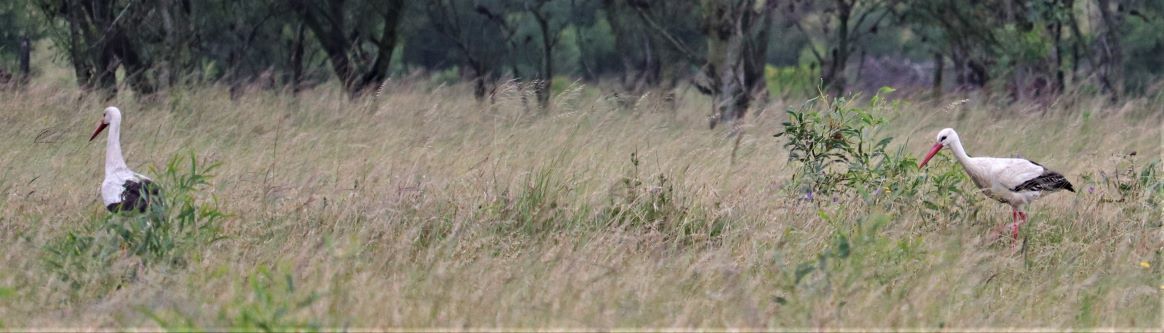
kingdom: Animalia
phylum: Chordata
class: Aves
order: Ciconiiformes
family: Ciconiidae
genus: Ciconia
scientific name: Ciconia ciconia
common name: White stork
